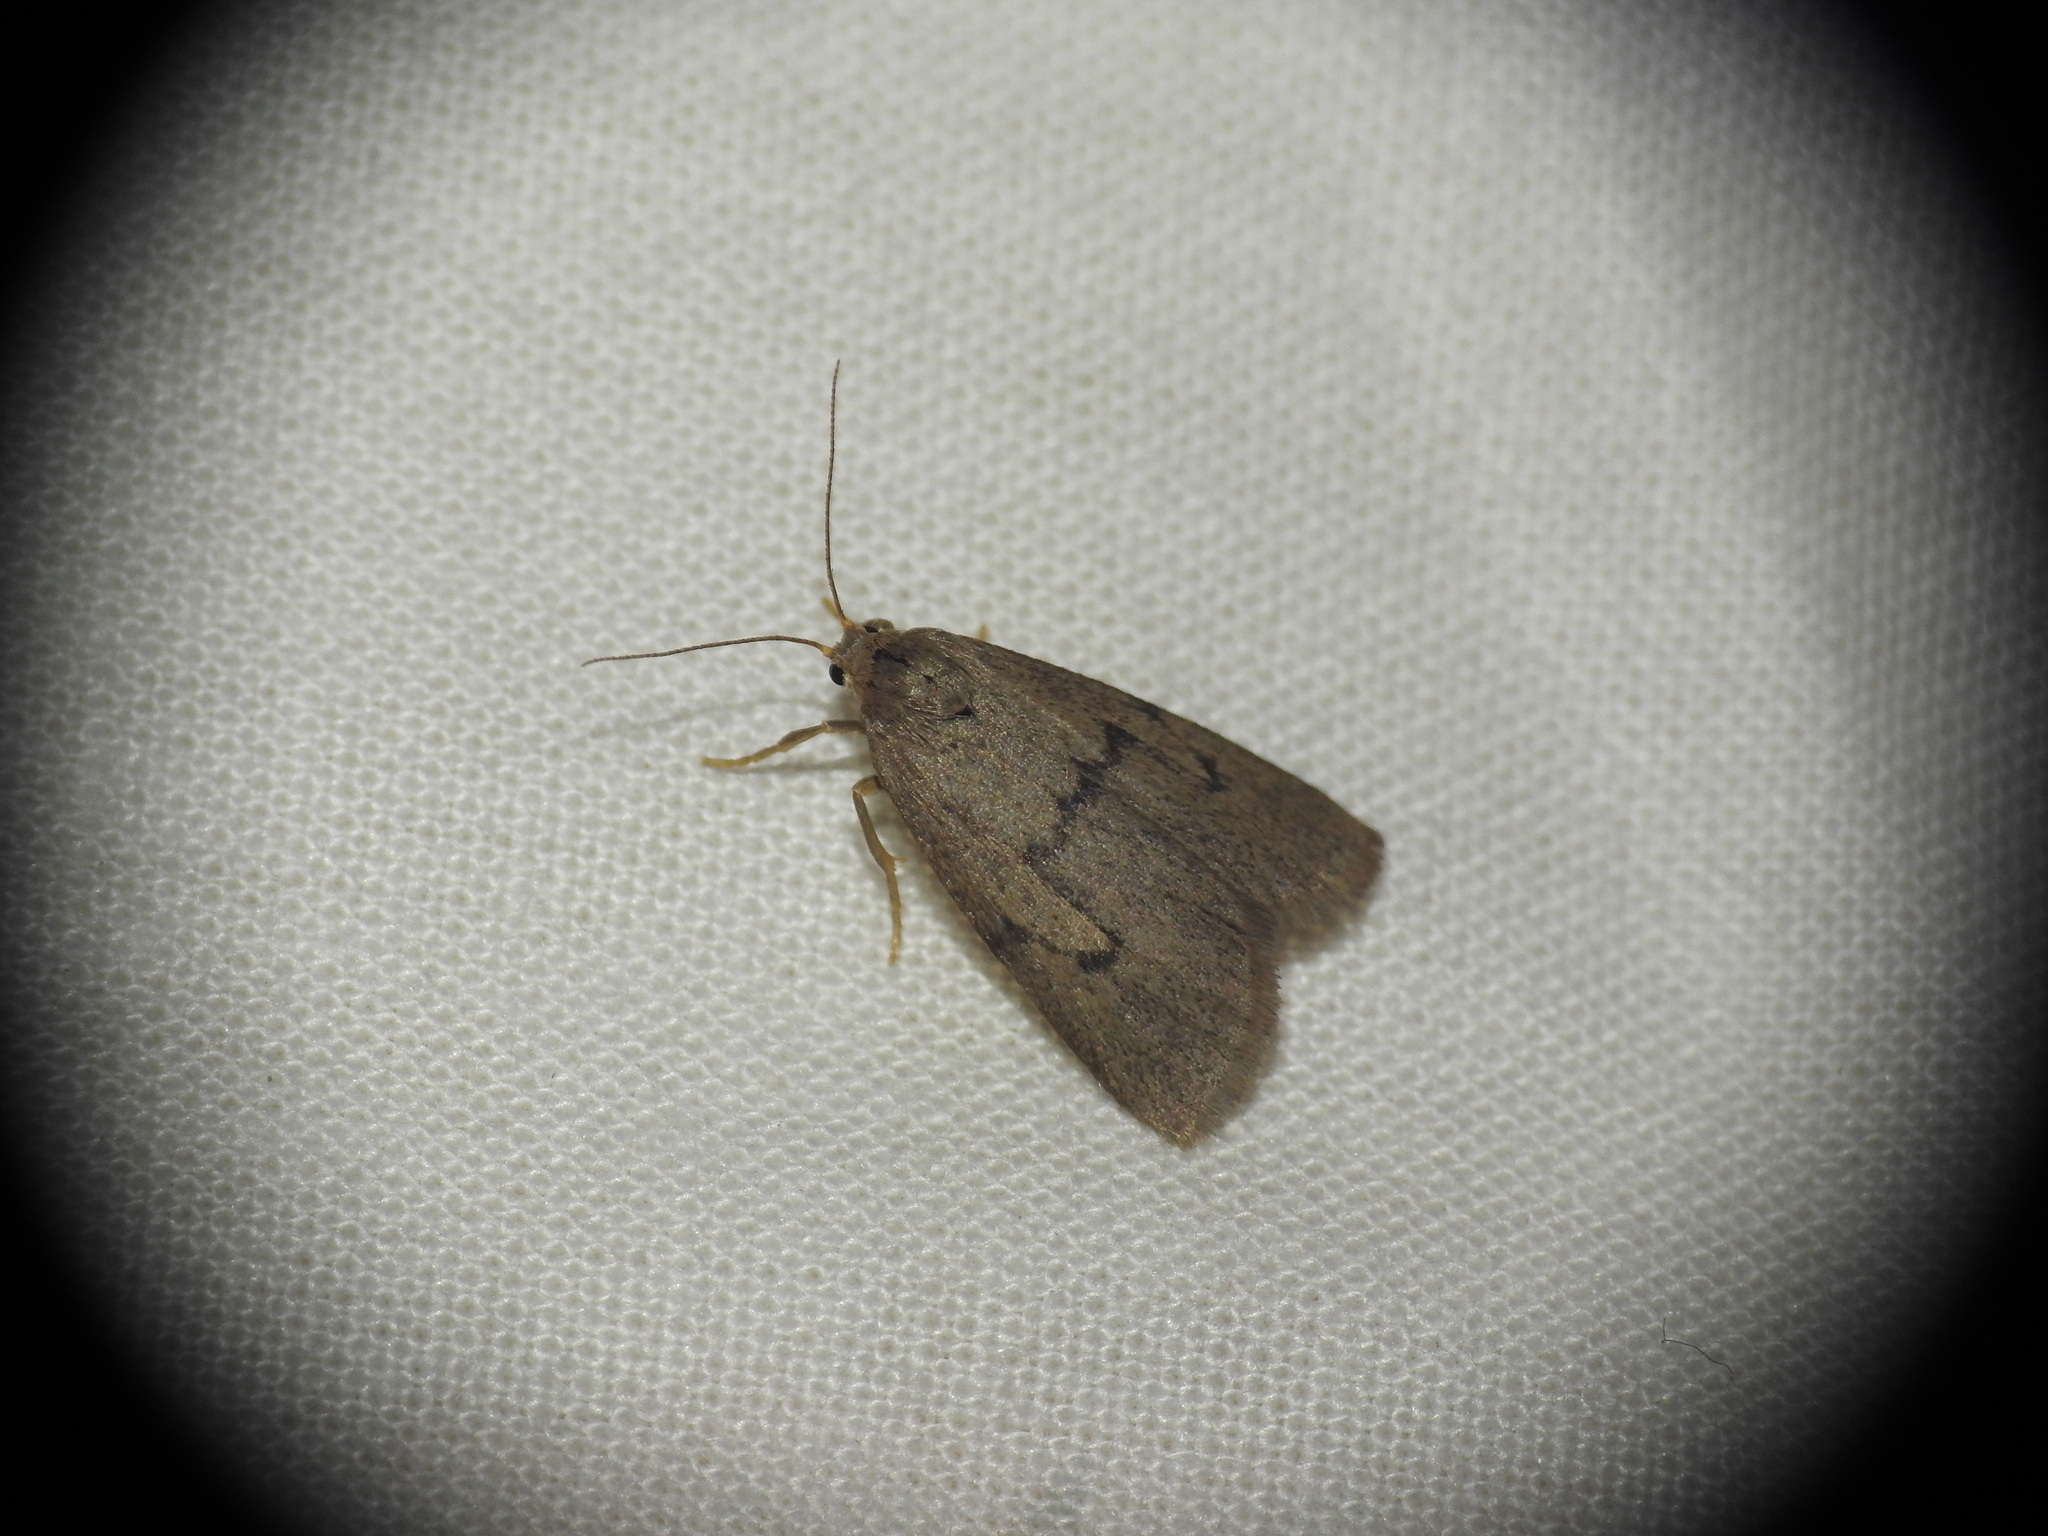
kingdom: Animalia
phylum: Arthropoda
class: Insecta
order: Lepidoptera
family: Erebidae
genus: Apaidia
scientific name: Apaidia mesogona
